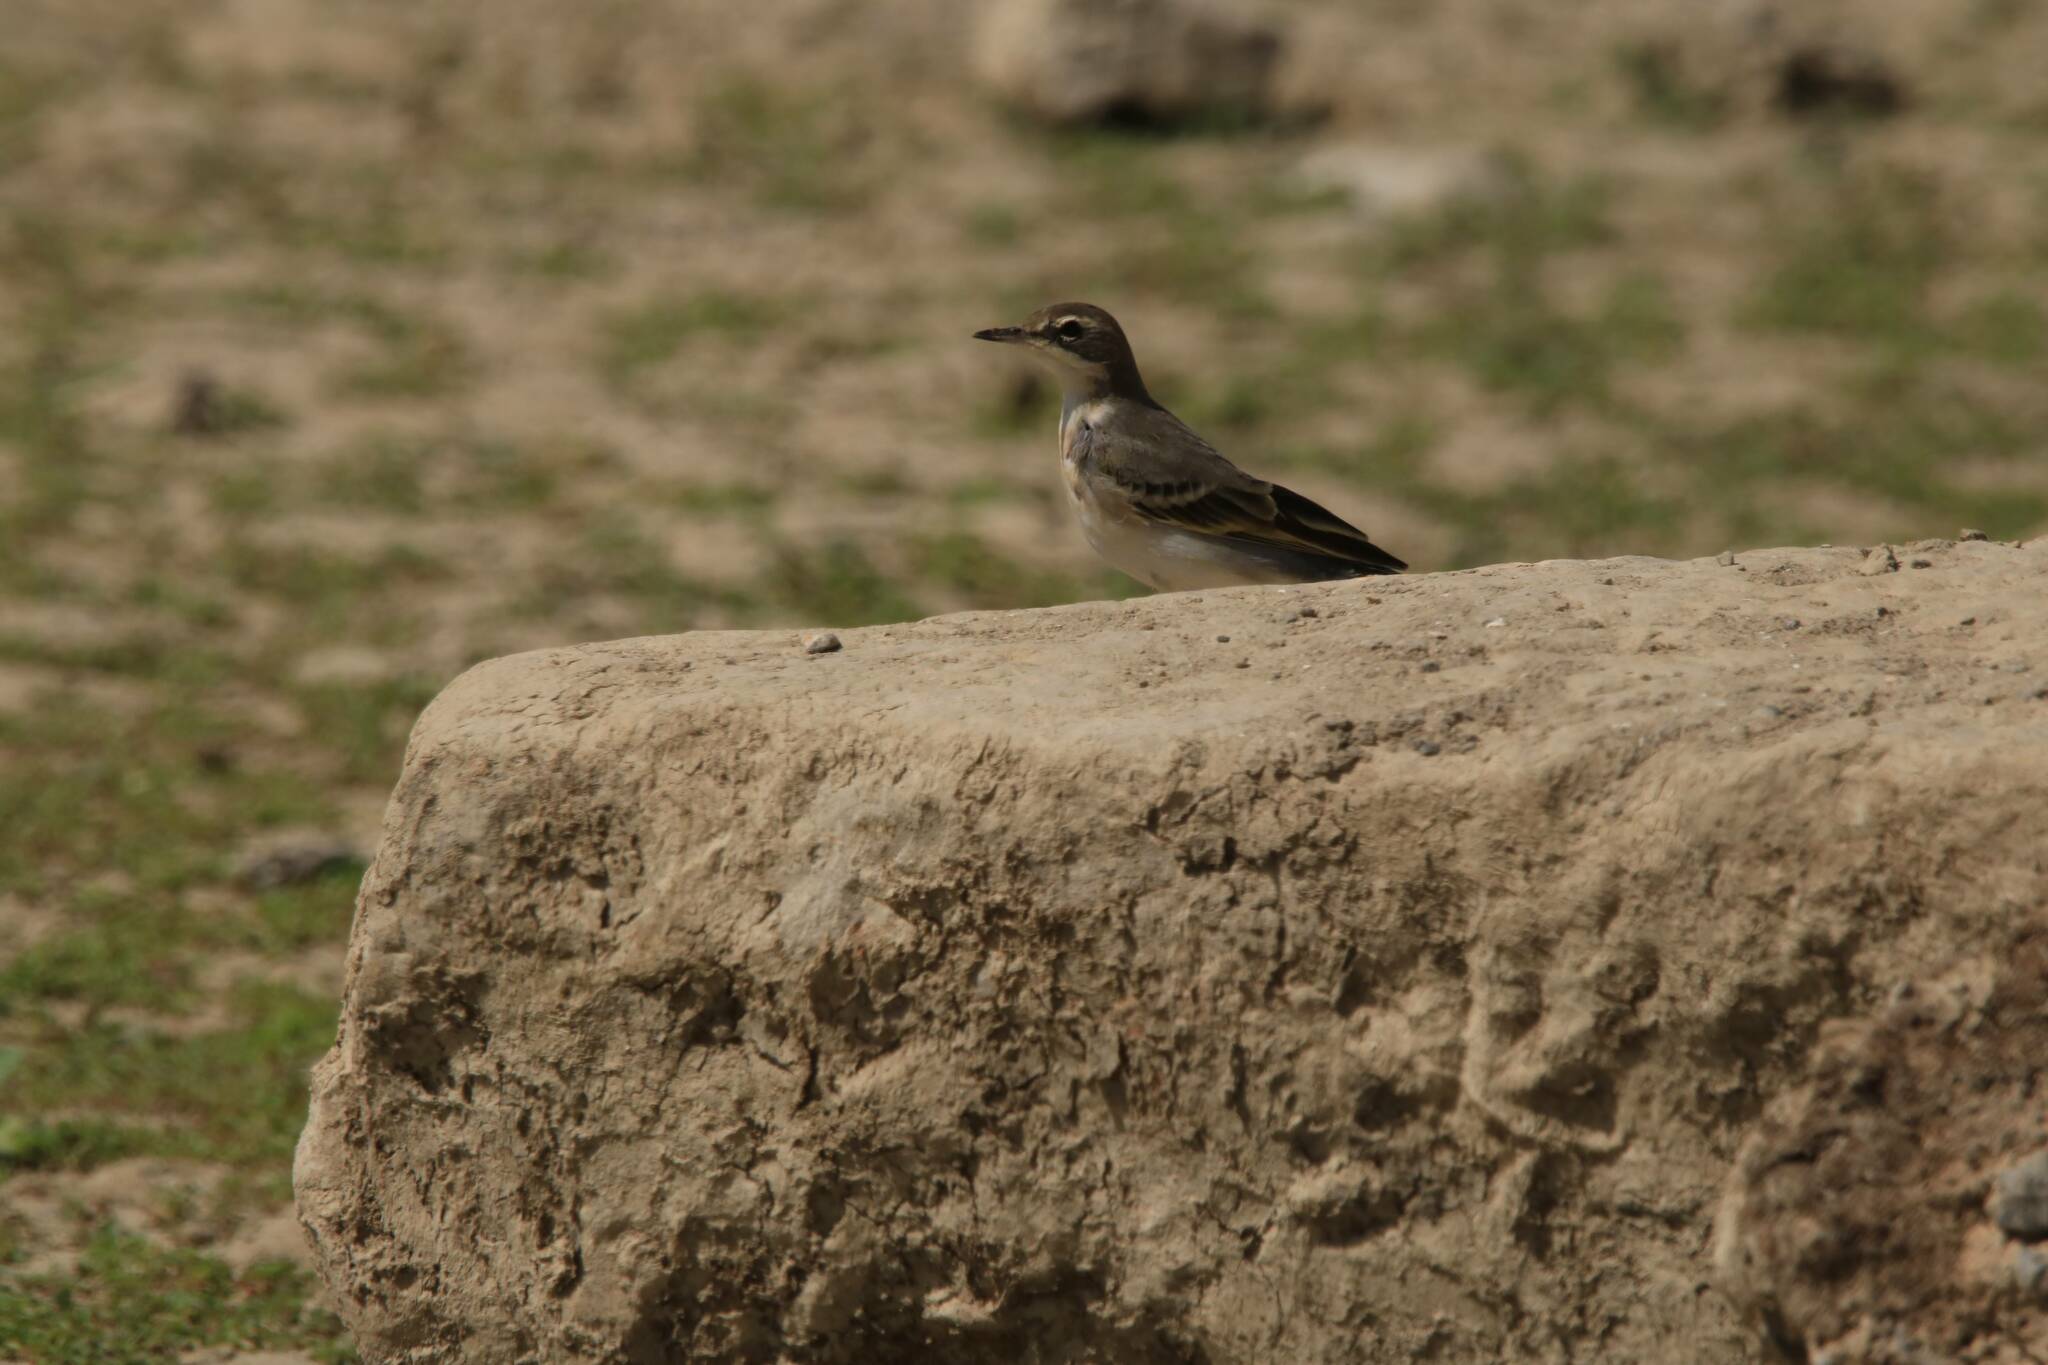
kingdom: Animalia
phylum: Chordata
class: Aves
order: Passeriformes
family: Motacillidae
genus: Motacilla
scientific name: Motacilla flava
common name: Western yellow wagtail
